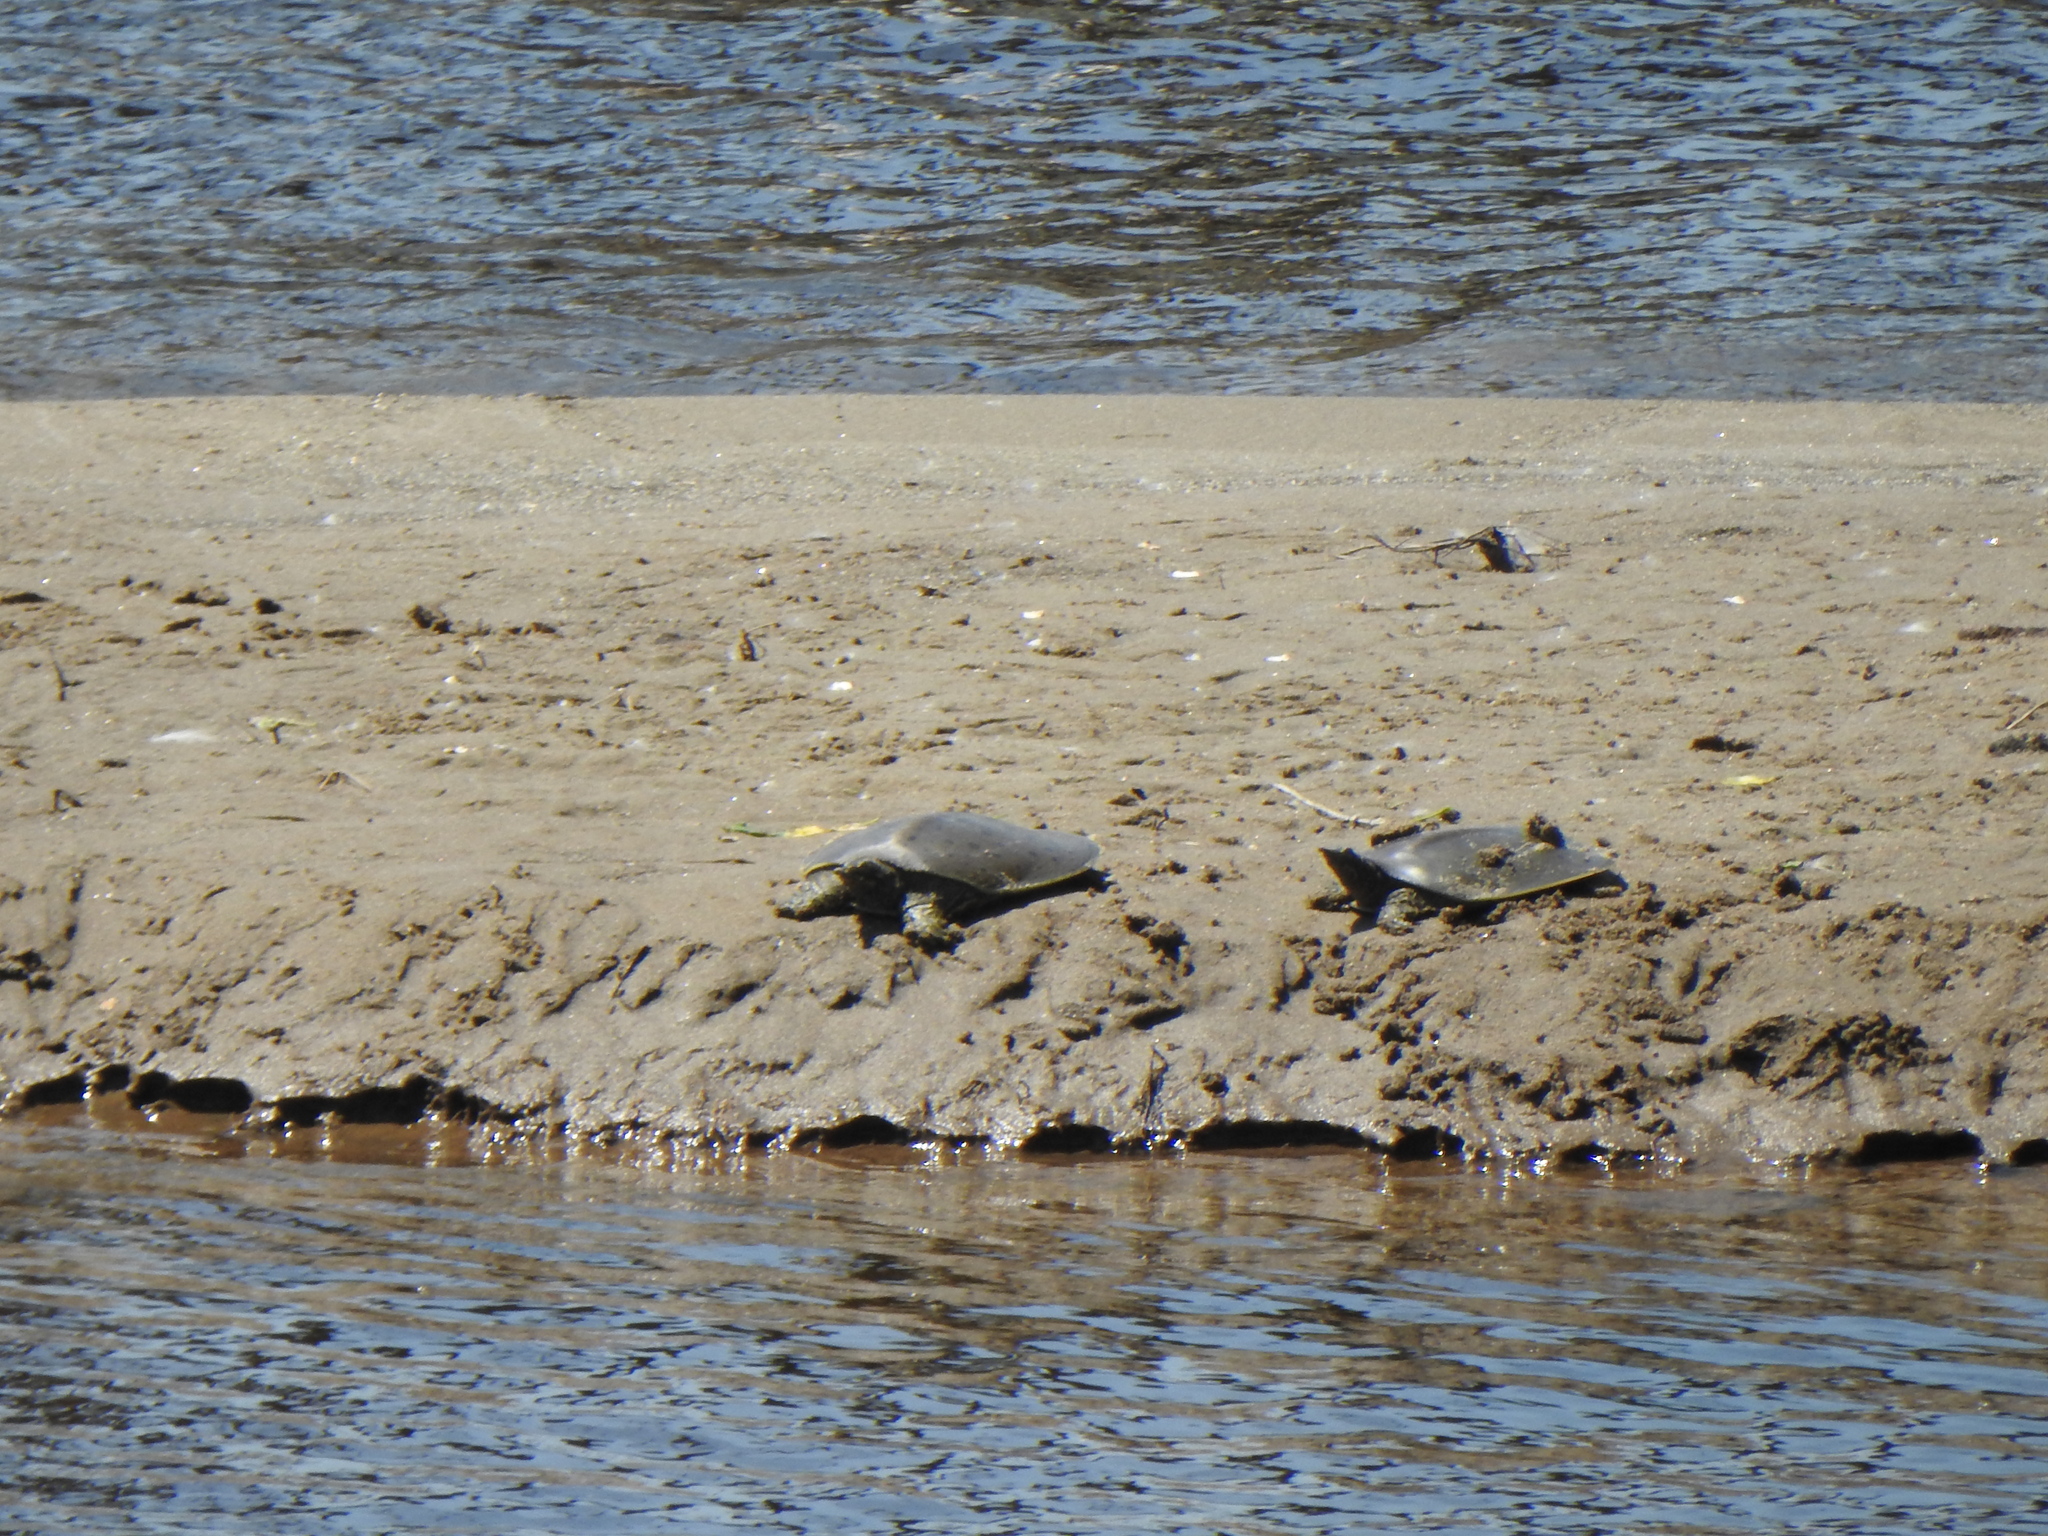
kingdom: Animalia
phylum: Chordata
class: Testudines
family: Trionychidae
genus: Apalone
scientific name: Apalone spinifera
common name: Spiny softshell turtle
